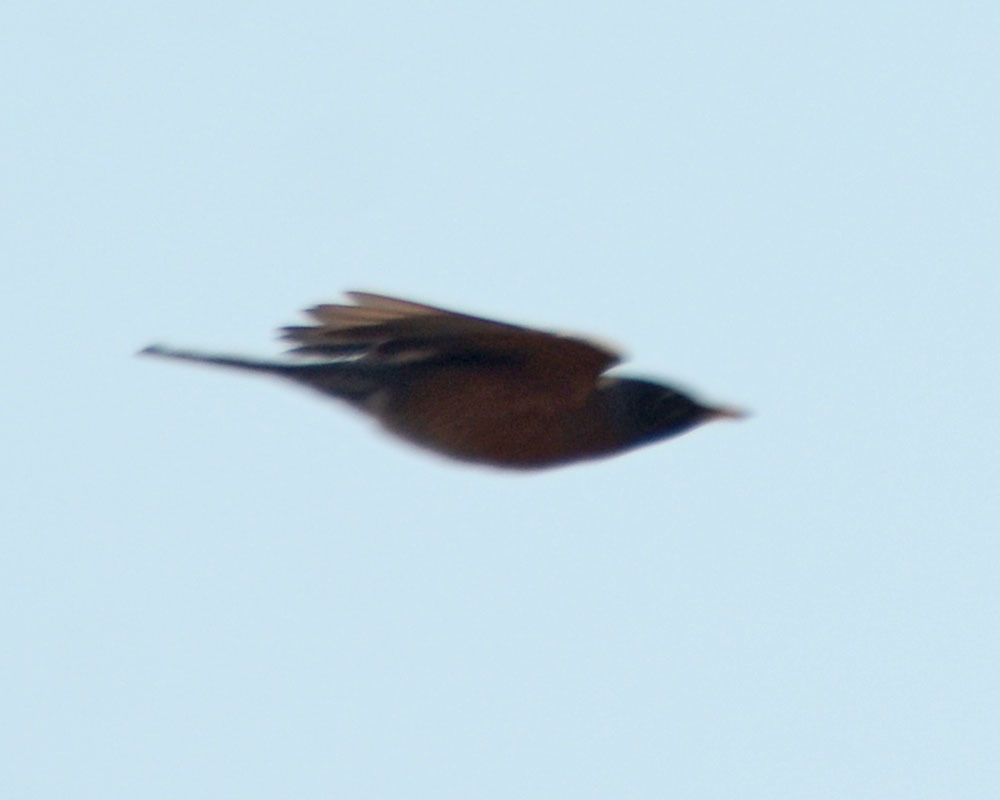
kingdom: Animalia
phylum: Chordata
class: Aves
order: Passeriformes
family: Turdidae
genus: Turdus
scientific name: Turdus migratorius
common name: American robin
